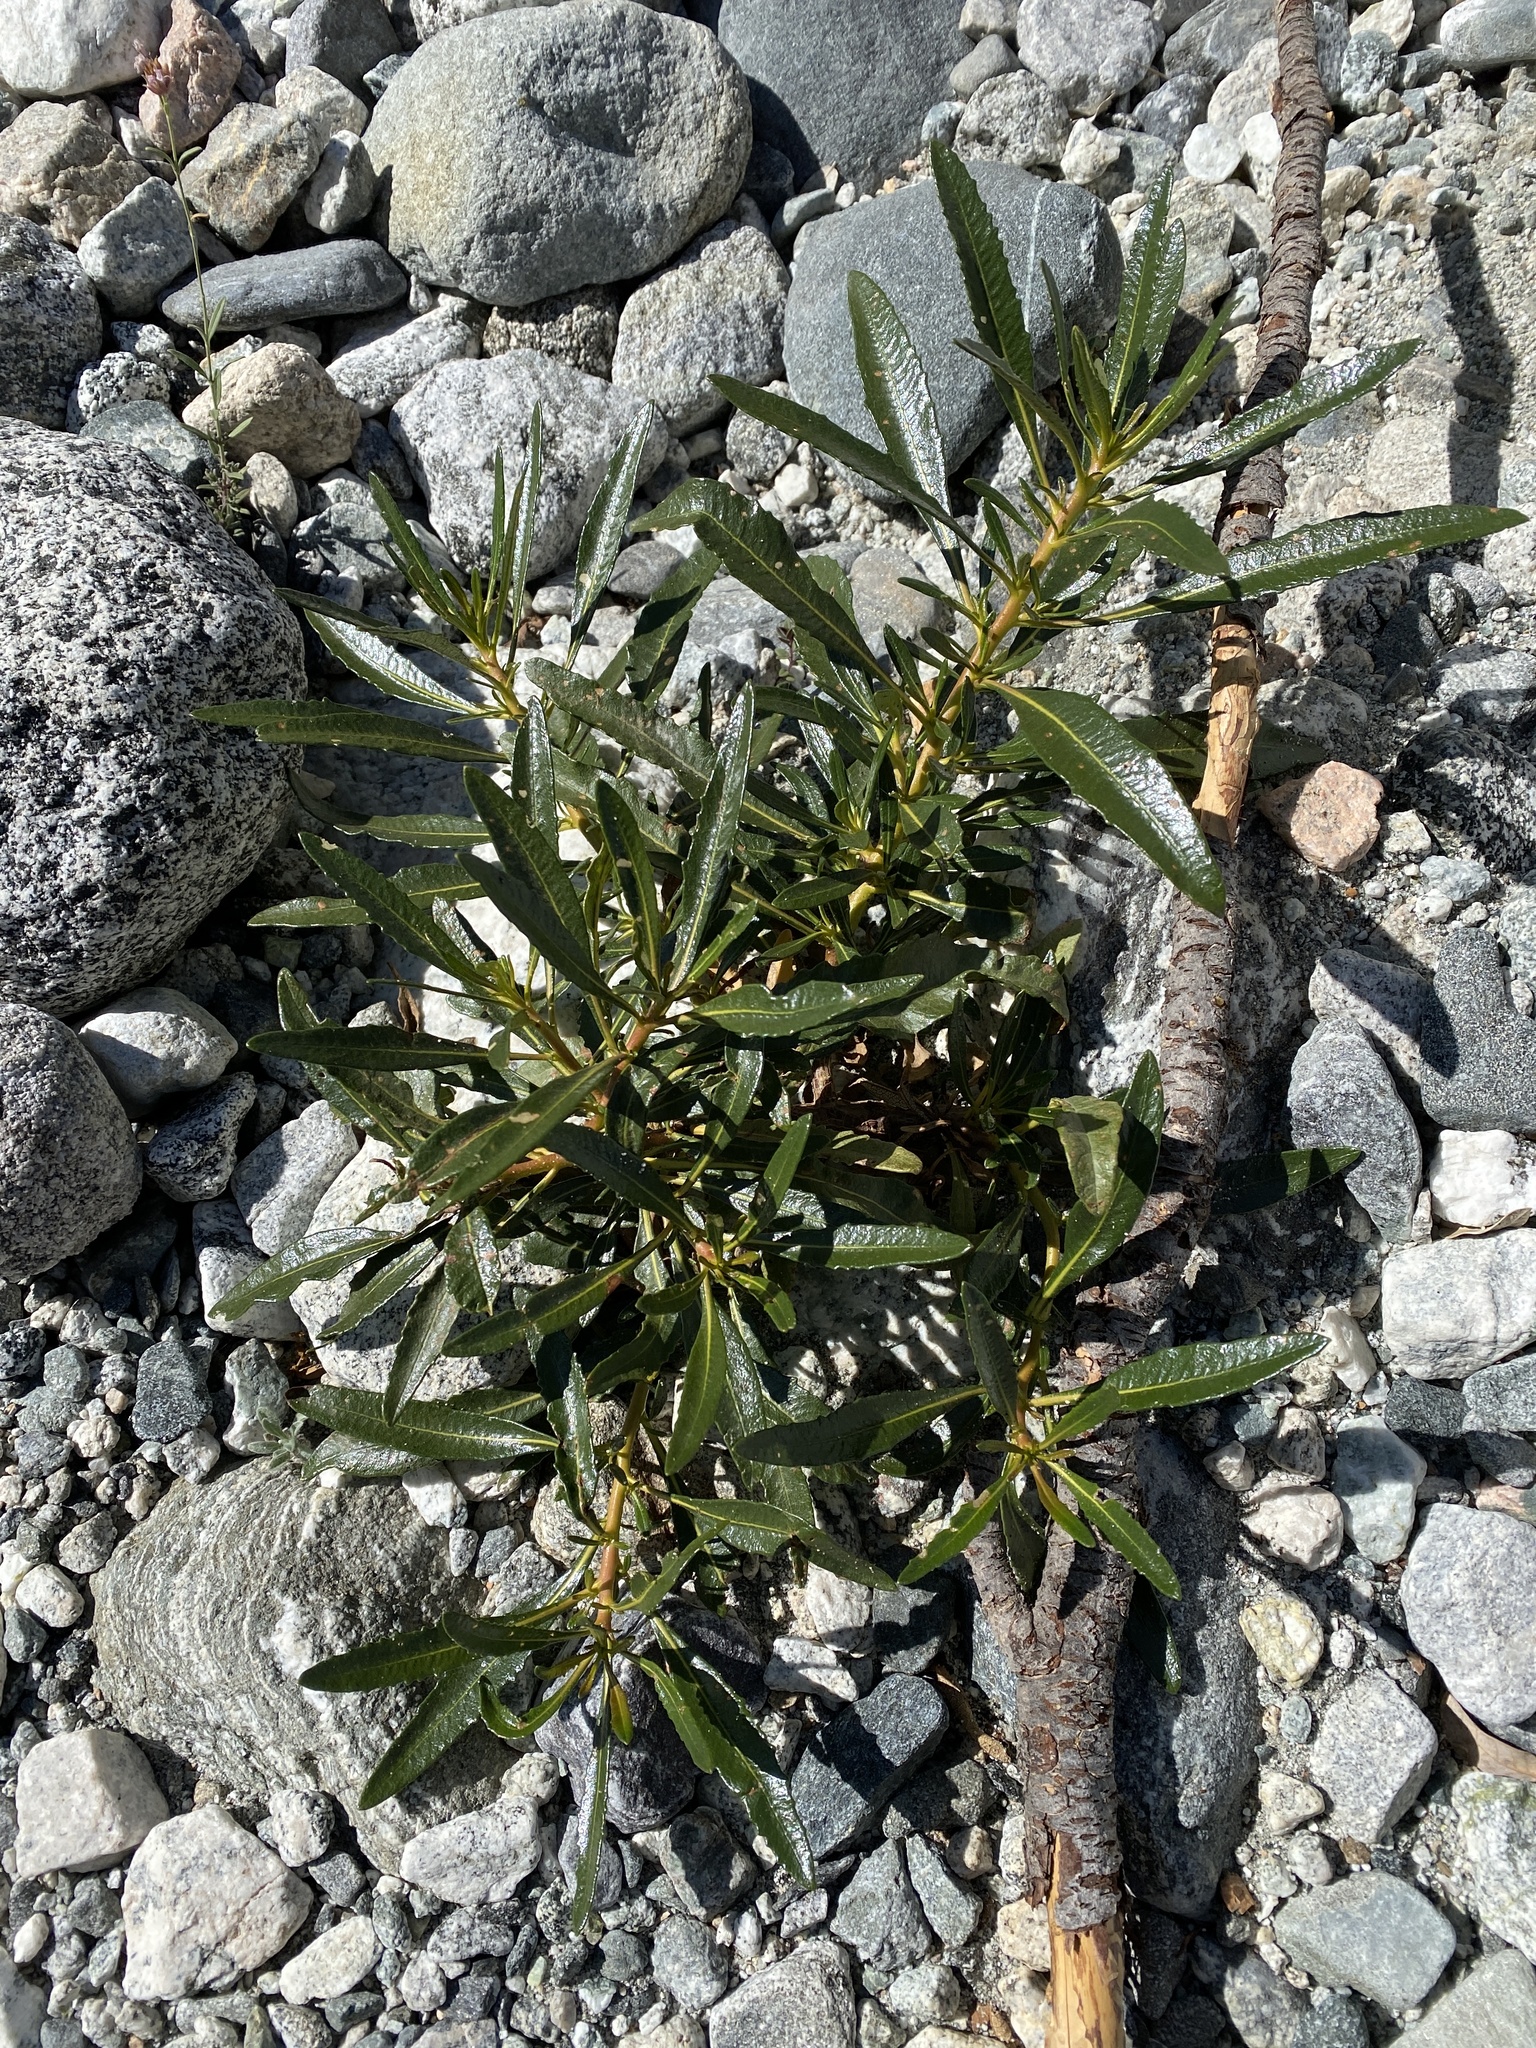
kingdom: Plantae
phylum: Tracheophyta
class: Magnoliopsida
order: Boraginales
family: Namaceae
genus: Eriodictyon
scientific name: Eriodictyon trichocalyx
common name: Hairy yerba-santa
